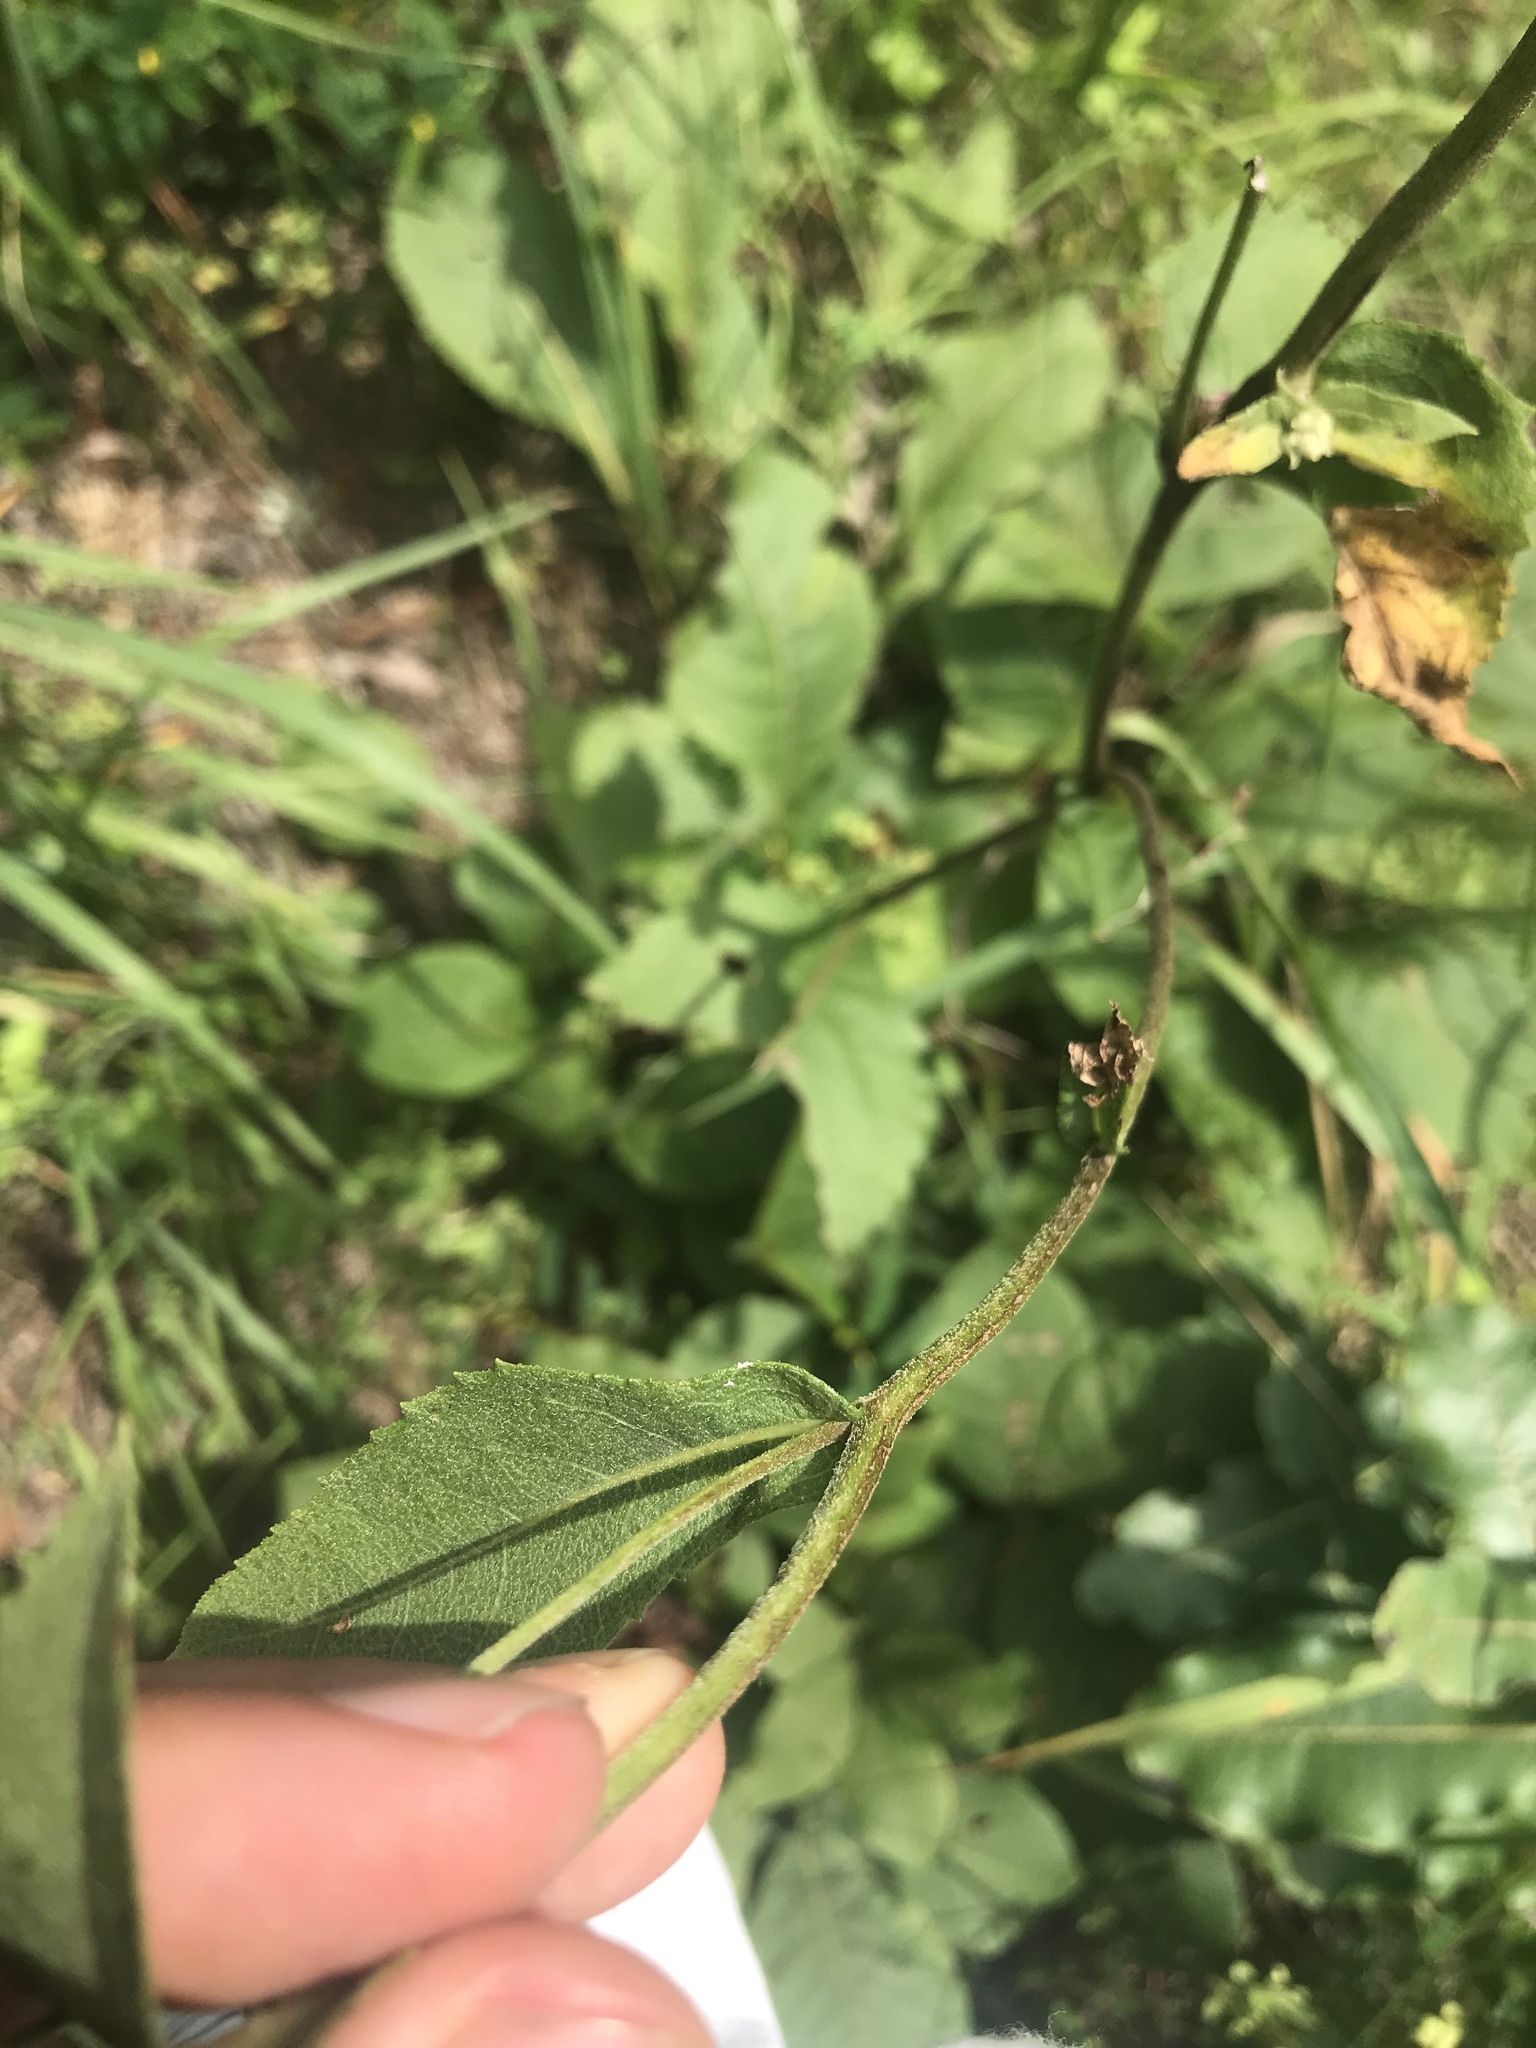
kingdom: Plantae
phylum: Tracheophyta
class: Magnoliopsida
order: Asterales
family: Asteraceae
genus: Parthenium
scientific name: Parthenium integrifolium
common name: American feverfew
